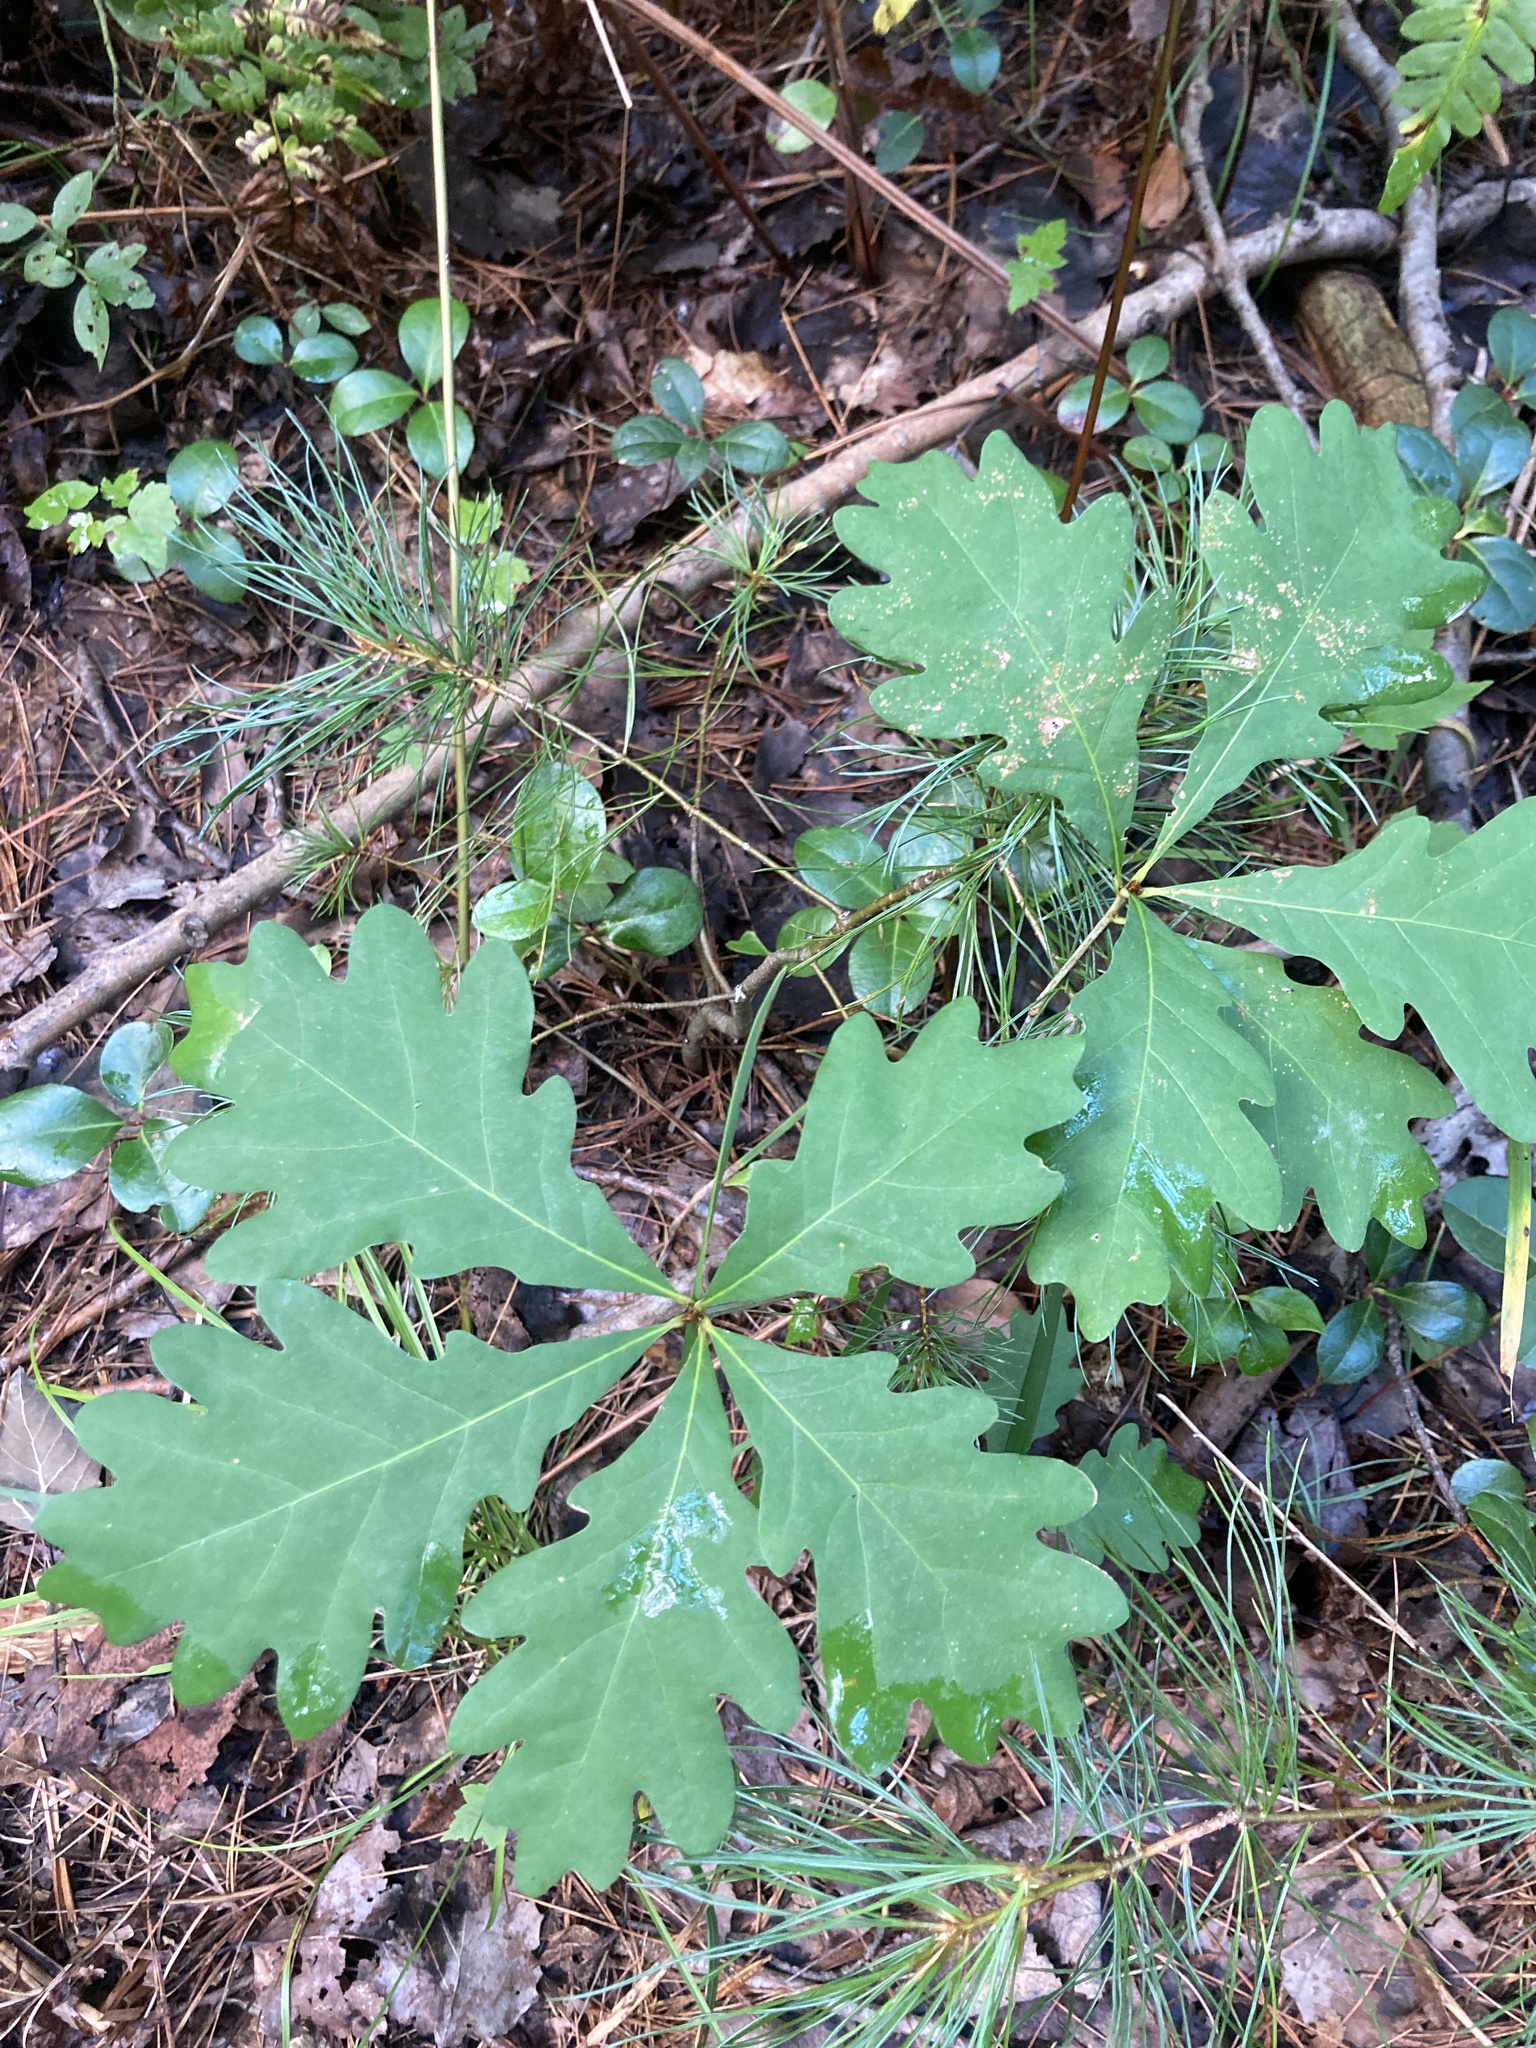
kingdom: Plantae
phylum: Tracheophyta
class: Magnoliopsida
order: Fagales
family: Fagaceae
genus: Quercus
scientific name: Quercus alba
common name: White oak
